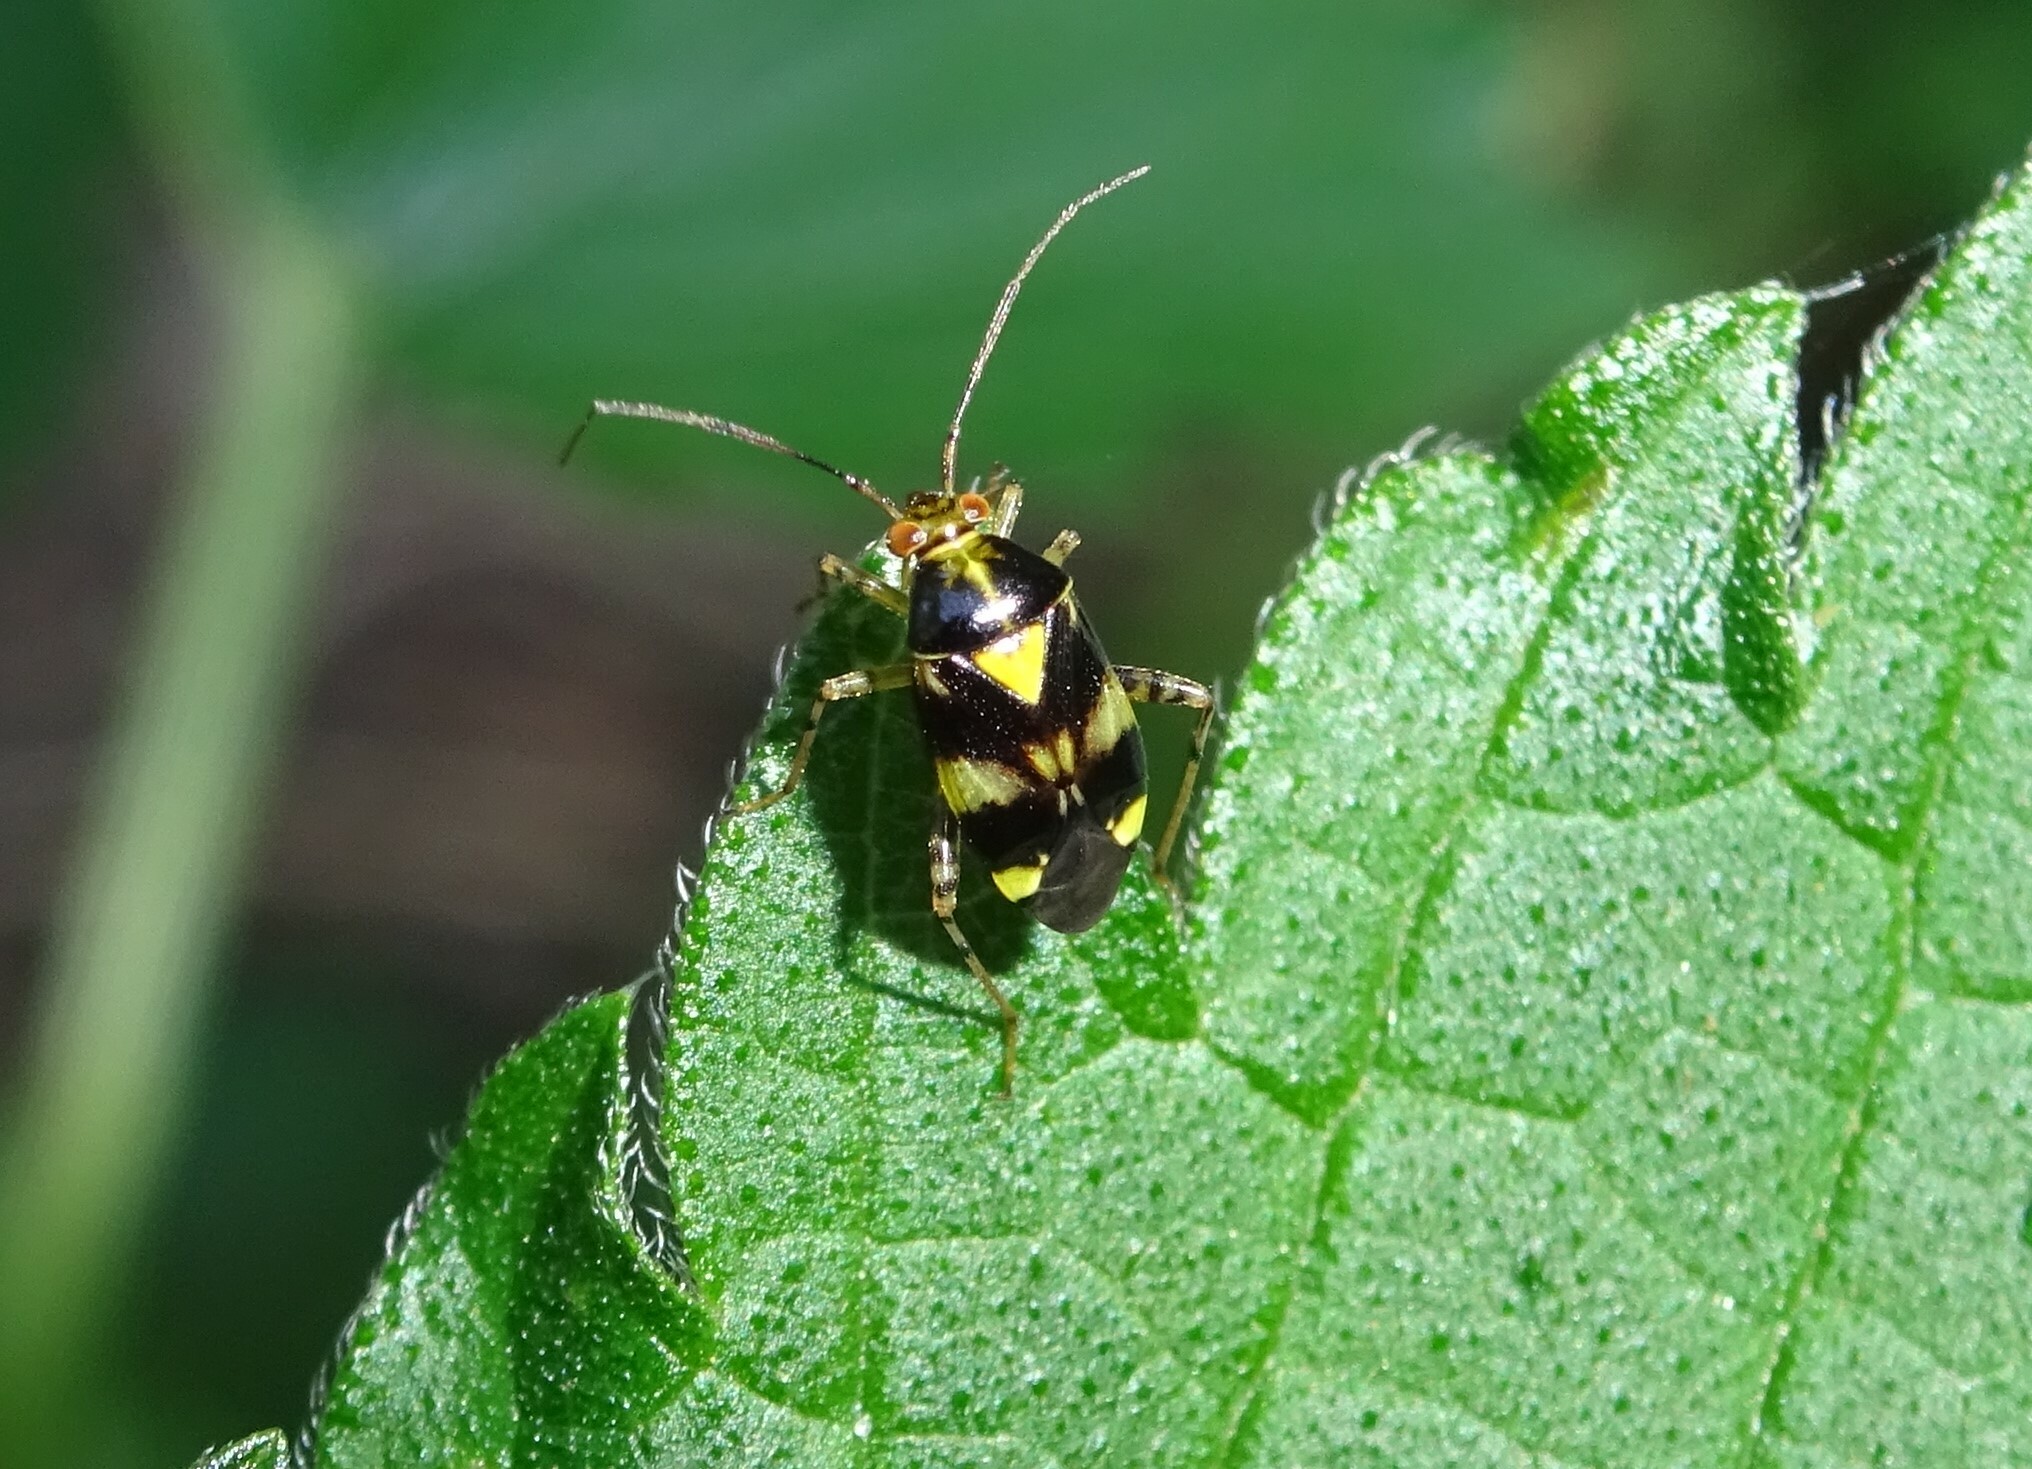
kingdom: Animalia
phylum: Arthropoda
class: Insecta
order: Hemiptera
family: Miridae
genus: Liocoris
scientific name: Liocoris tripustulatus
